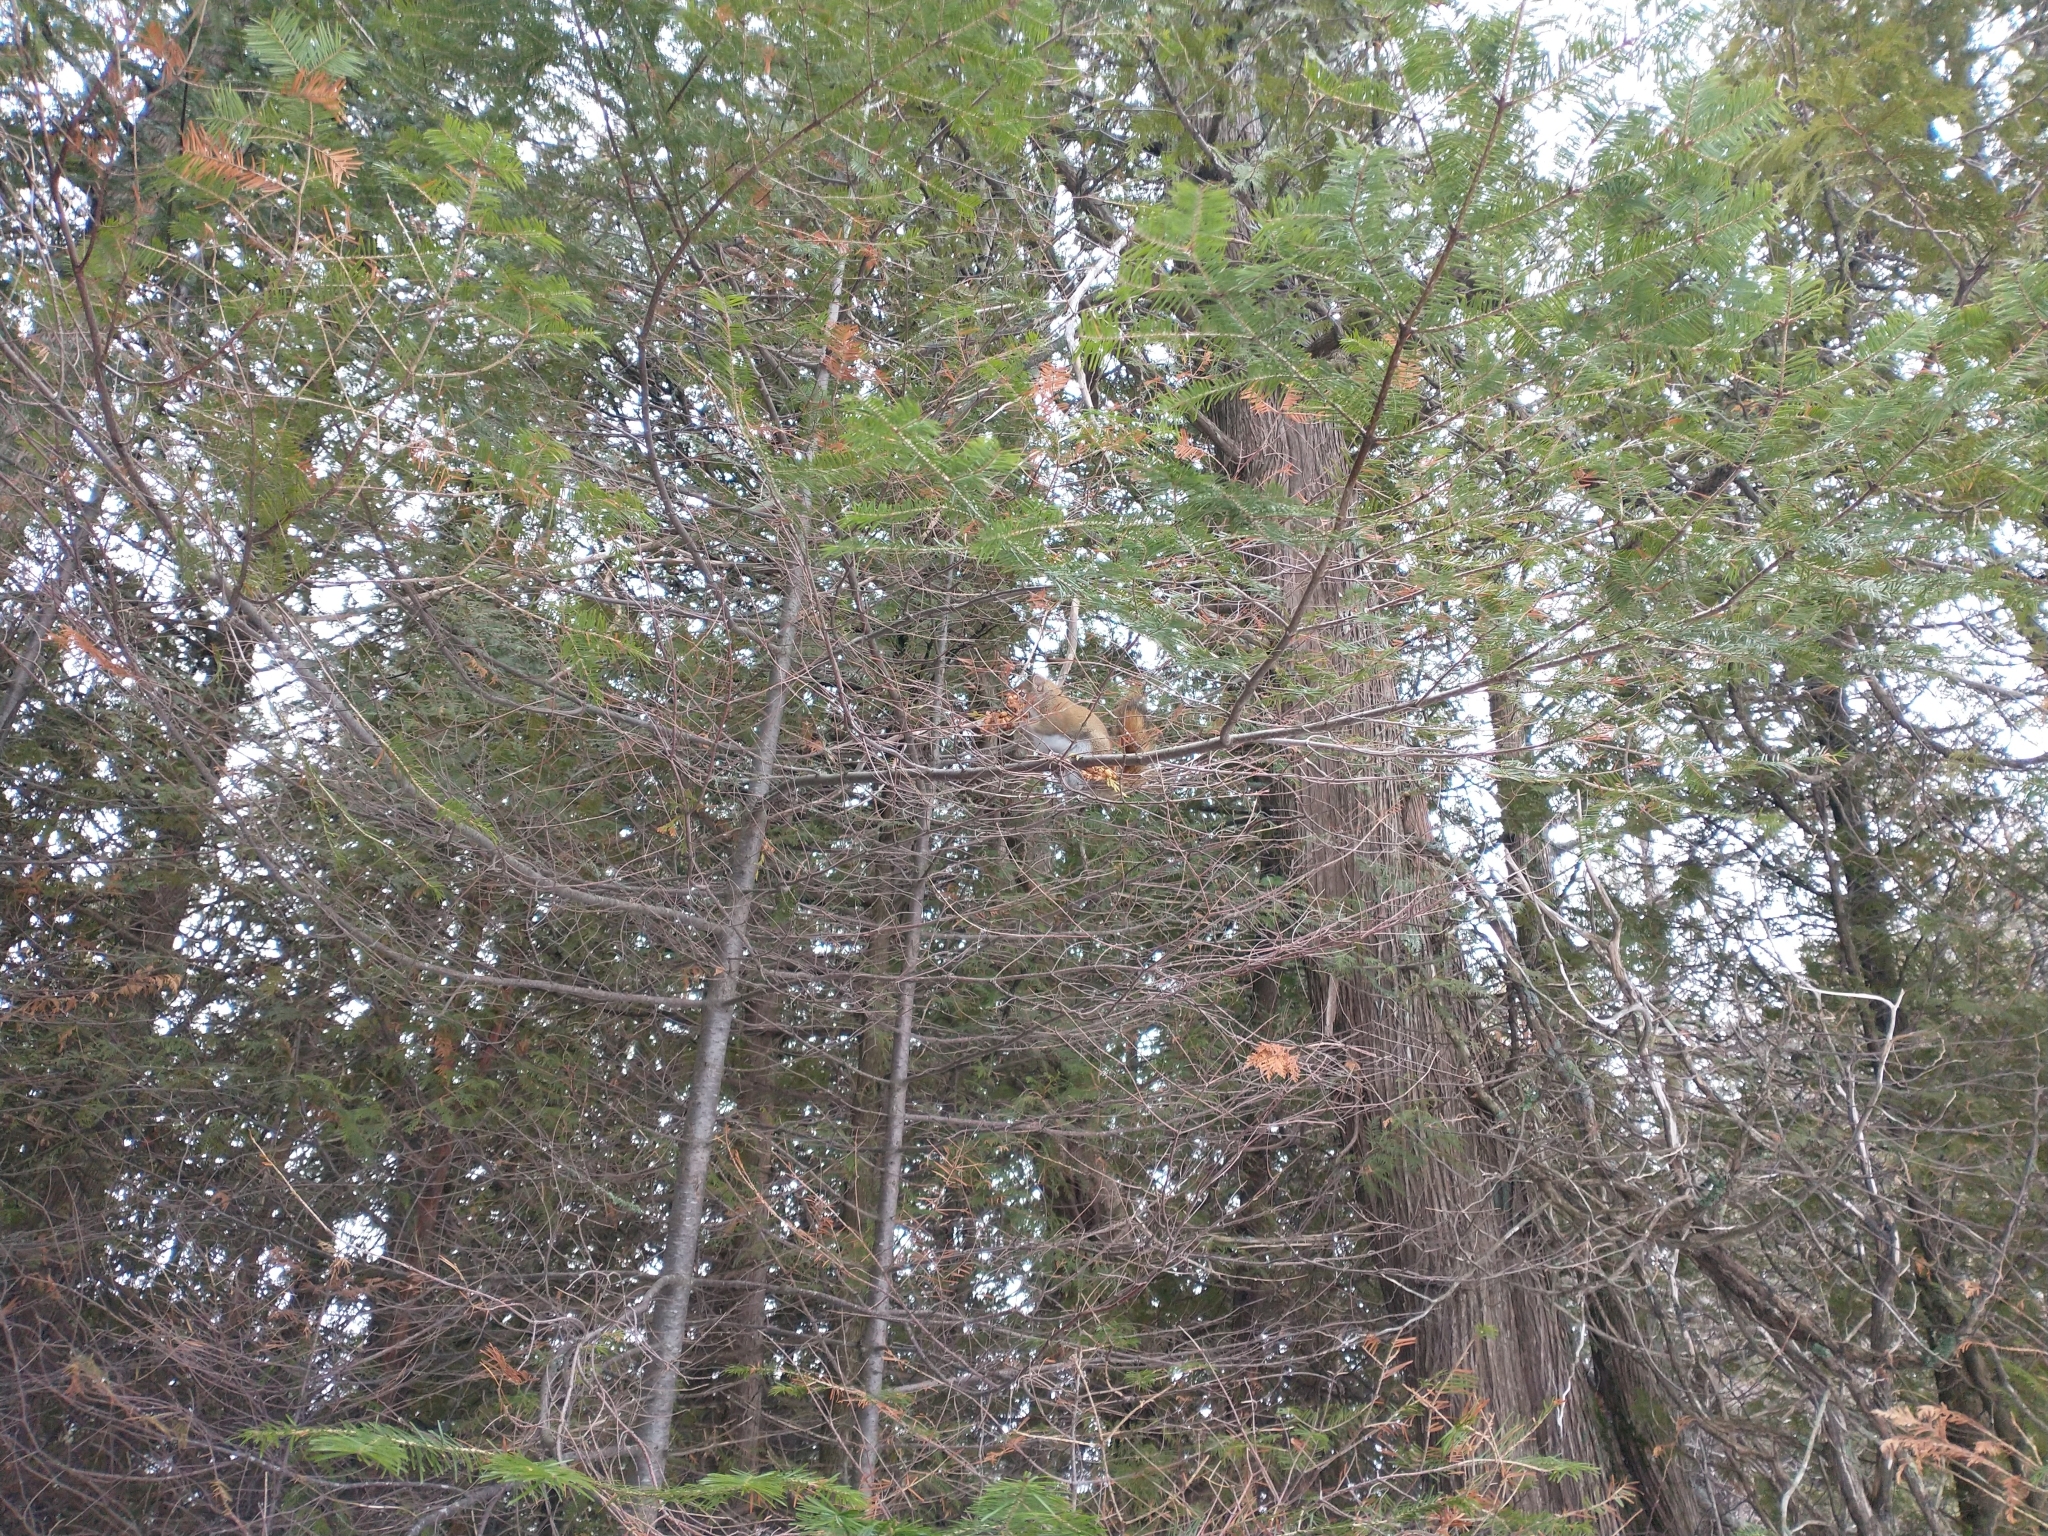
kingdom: Plantae
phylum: Tracheophyta
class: Pinopsida
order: Pinales
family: Pinaceae
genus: Abies
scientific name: Abies balsamea
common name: Balsam fir
